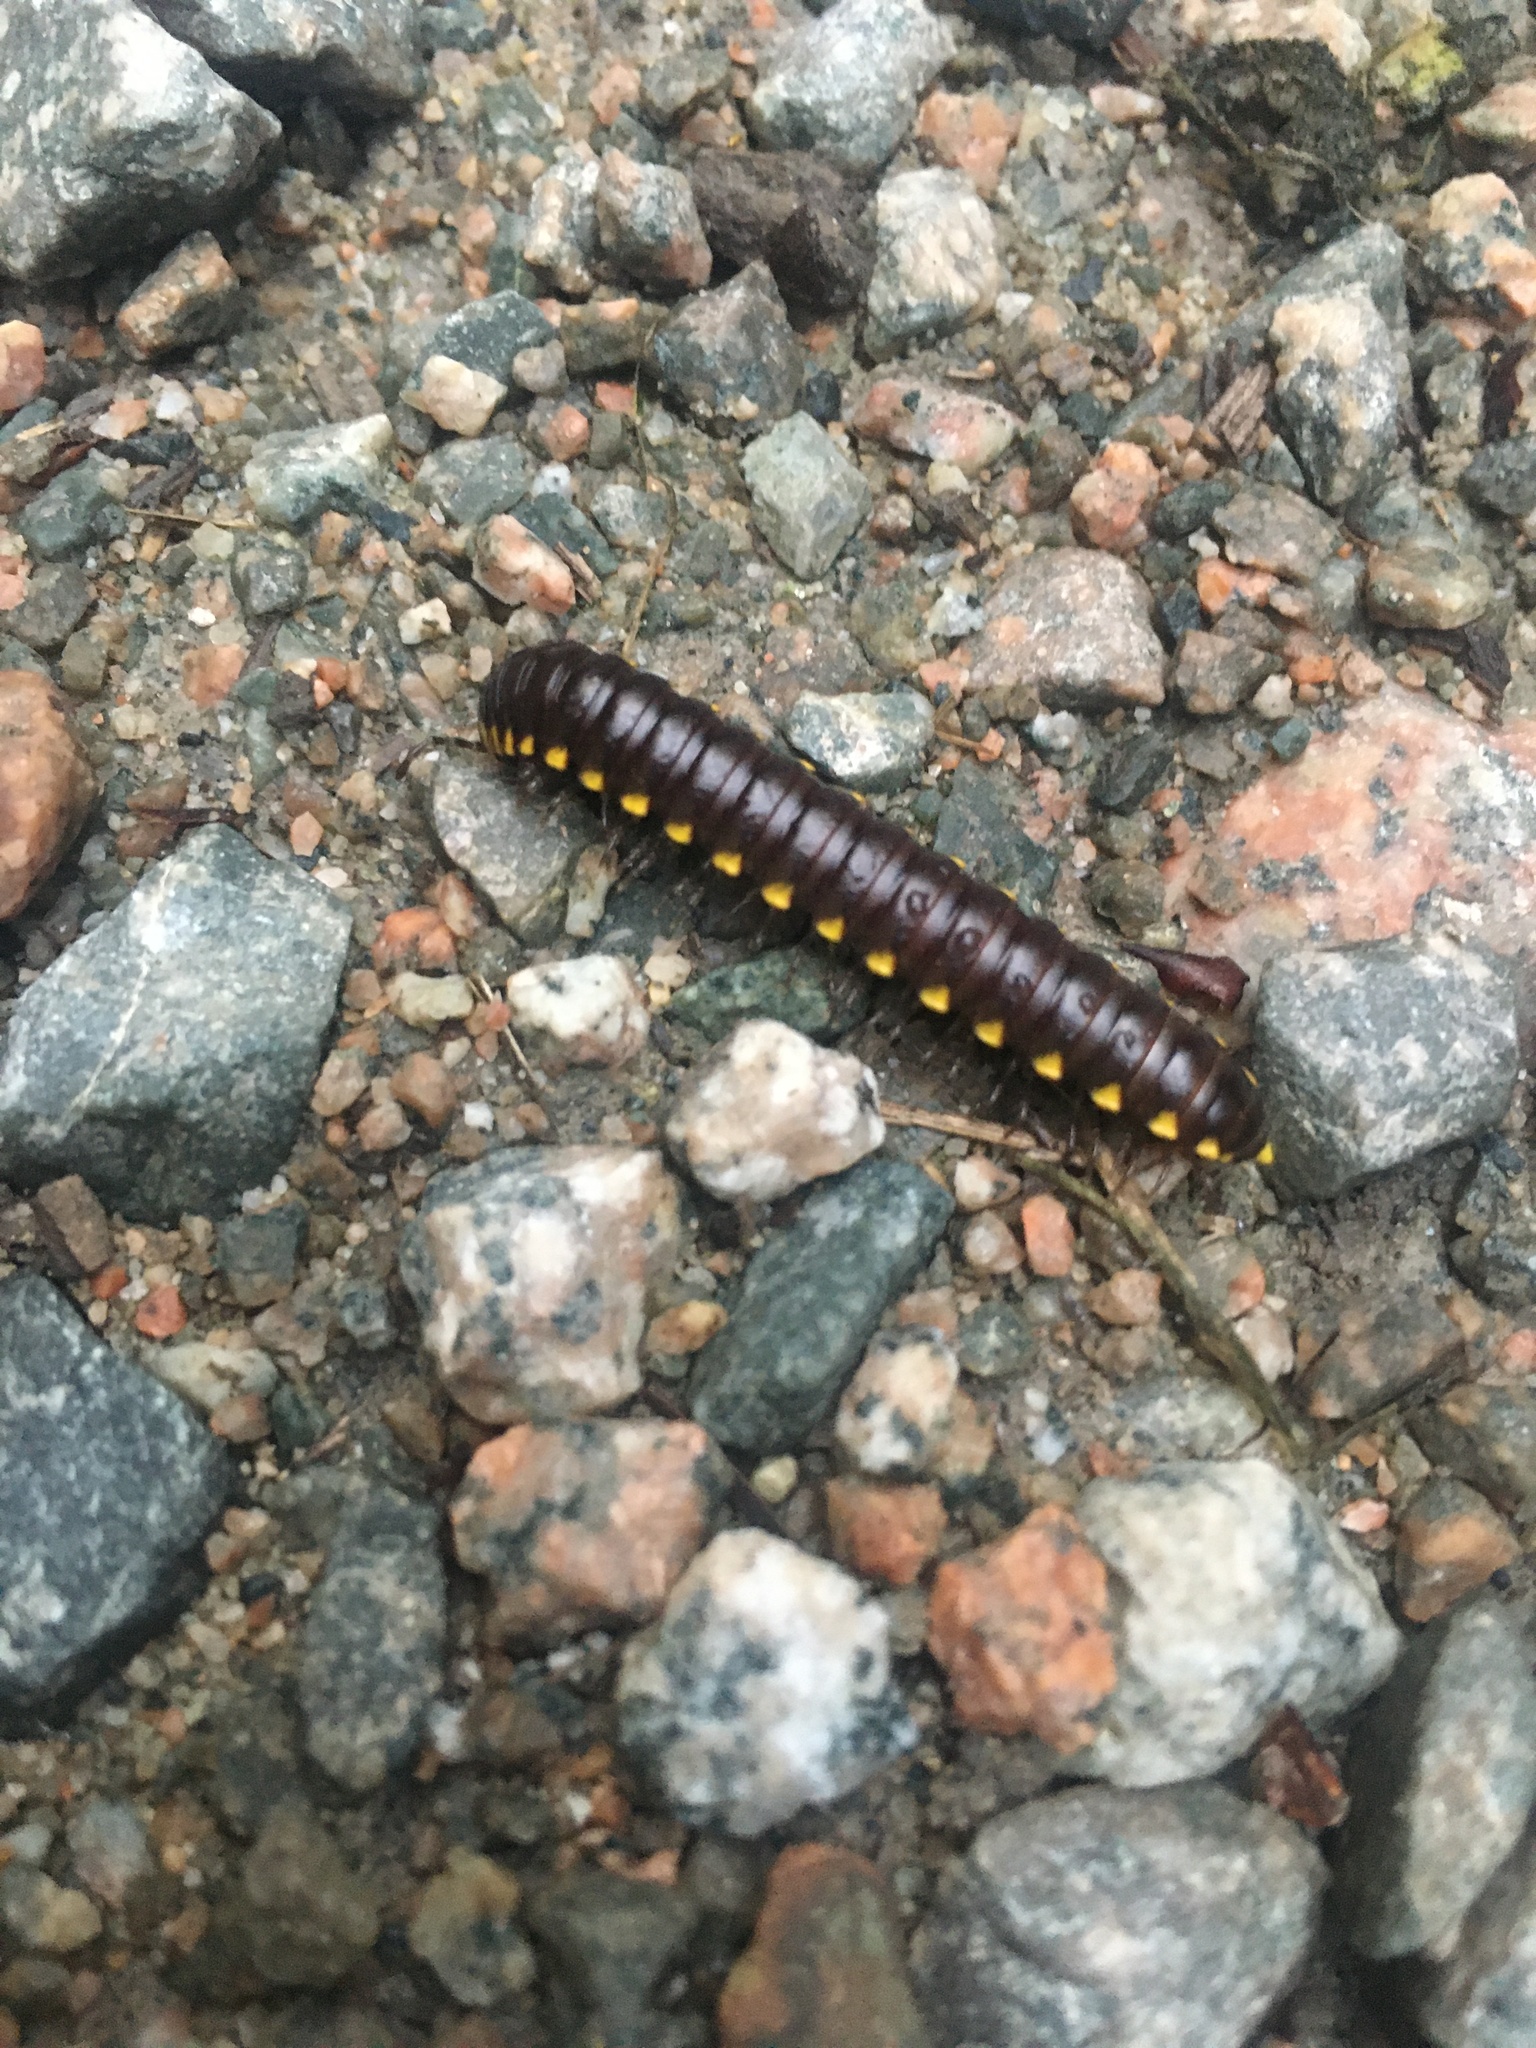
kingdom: Animalia
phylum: Arthropoda
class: Diplopoda
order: Polydesmida
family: Xystodesmidae
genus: Harpaphe
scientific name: Harpaphe haydeniana
